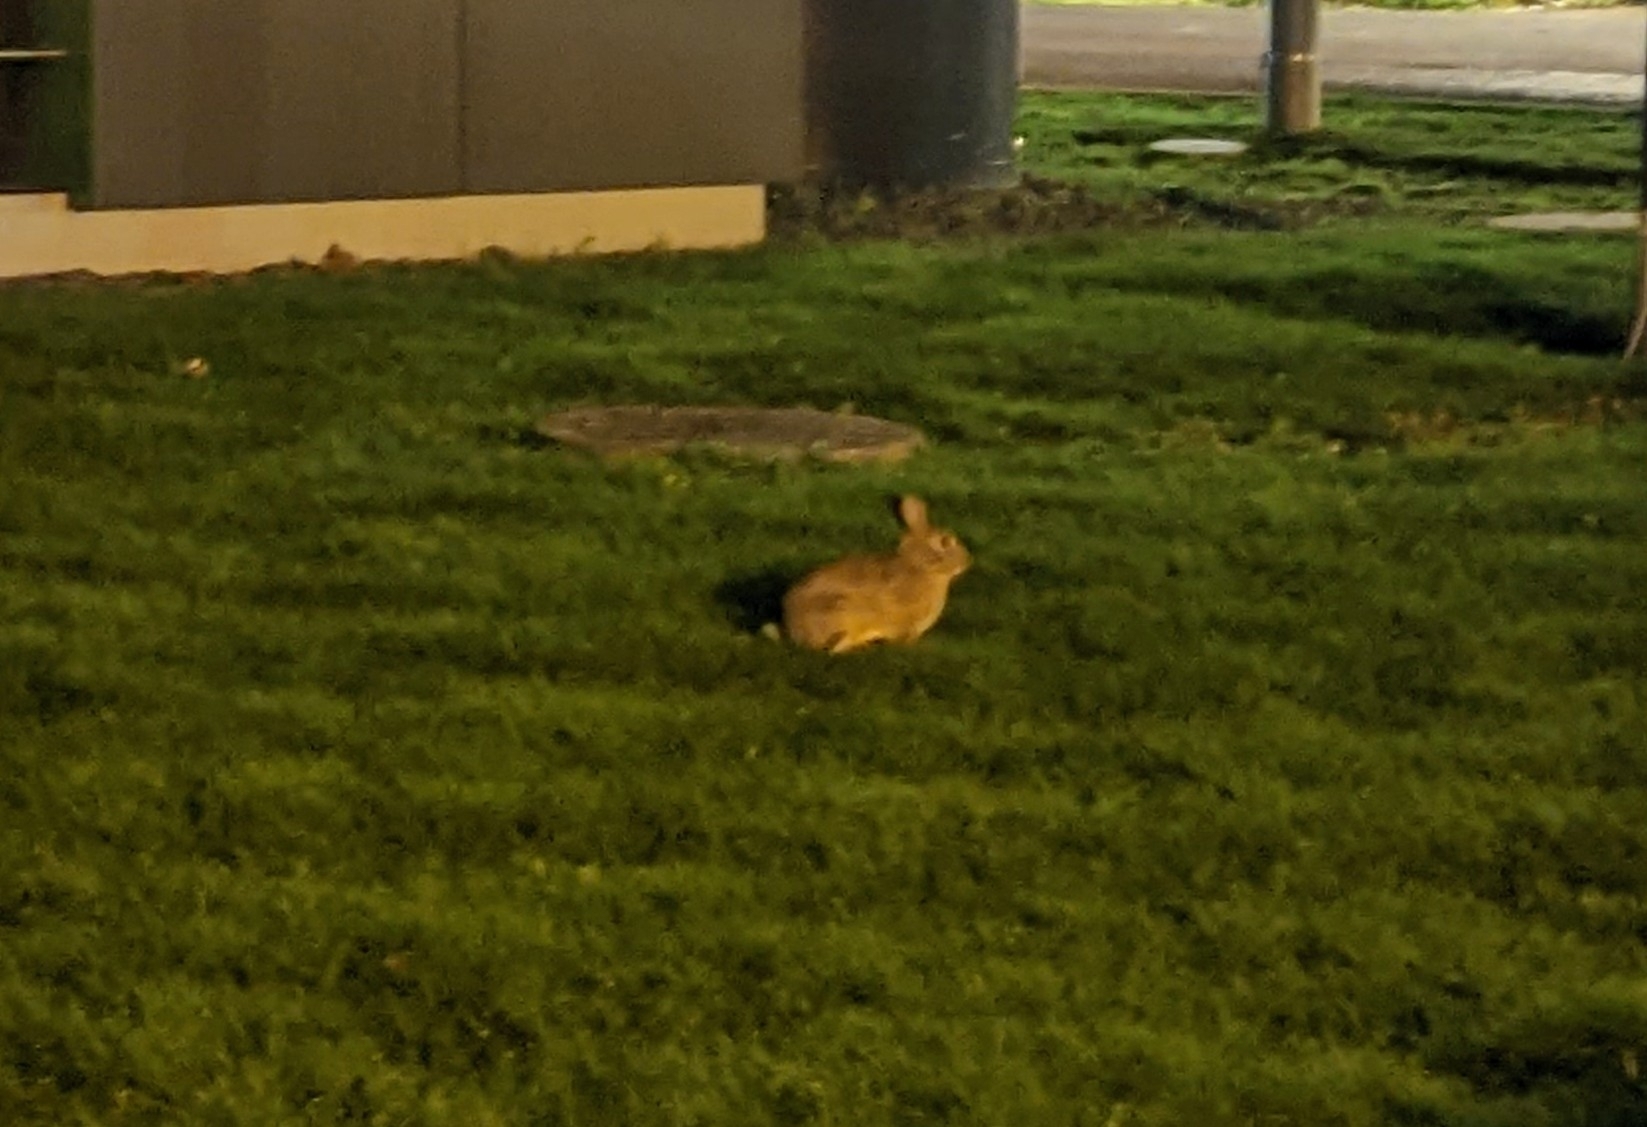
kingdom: Animalia
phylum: Chordata
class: Mammalia
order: Lagomorpha
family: Leporidae
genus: Oryctolagus
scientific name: Oryctolagus cuniculus
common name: European rabbit
